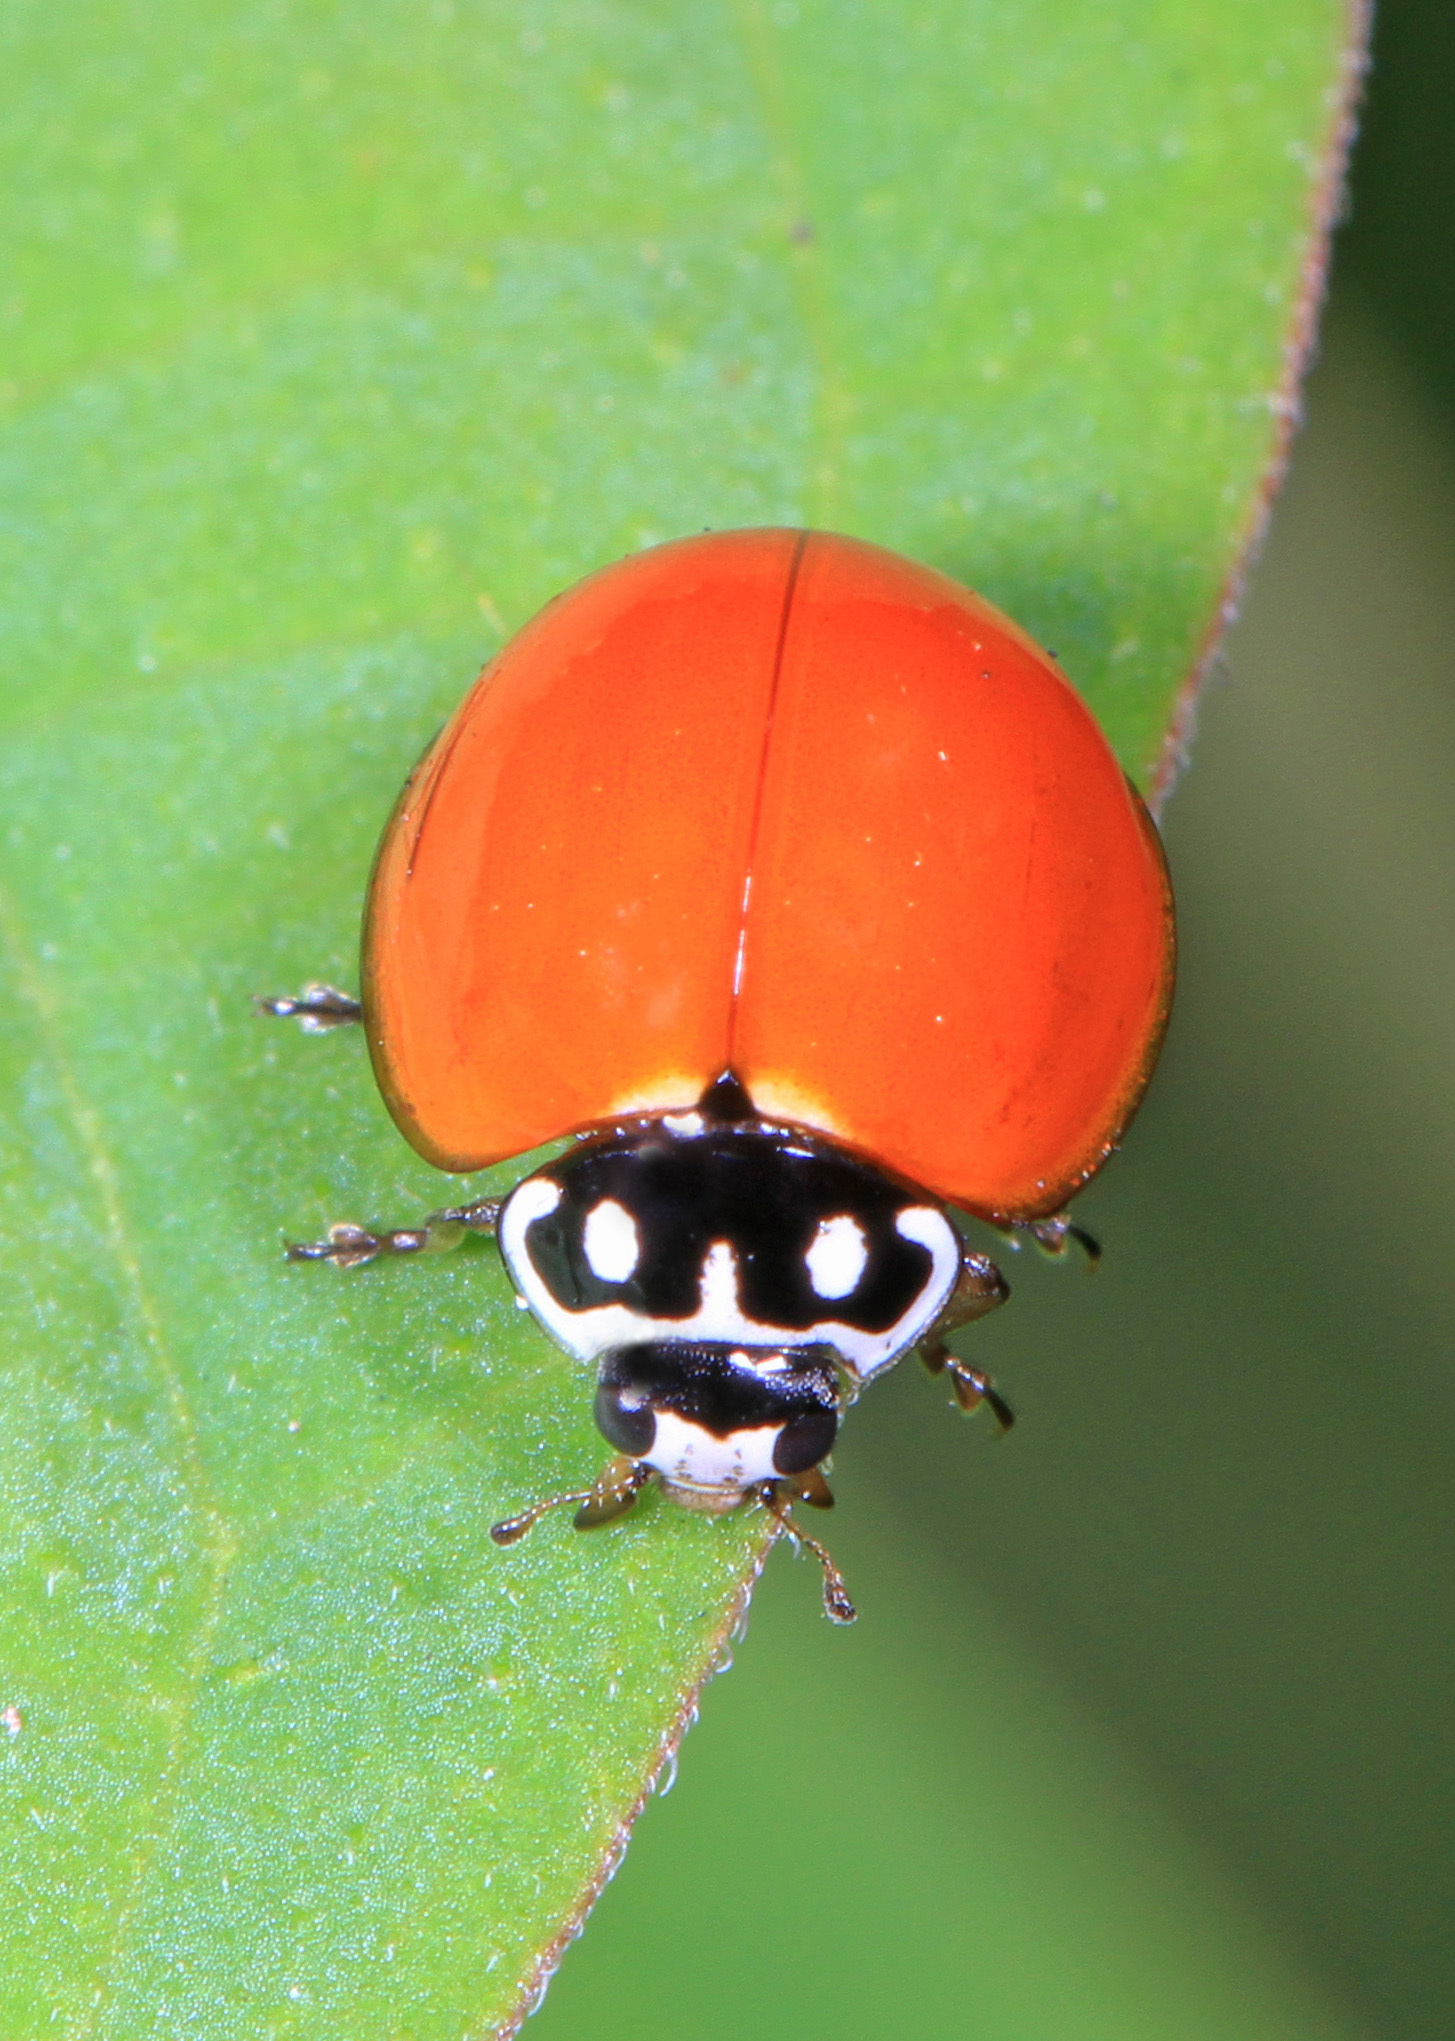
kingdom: Animalia
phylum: Arthropoda
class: Insecta
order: Coleoptera
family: Coccinellidae
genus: Cycloneda
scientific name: Cycloneda sanguinea
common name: Ladybird beetle
